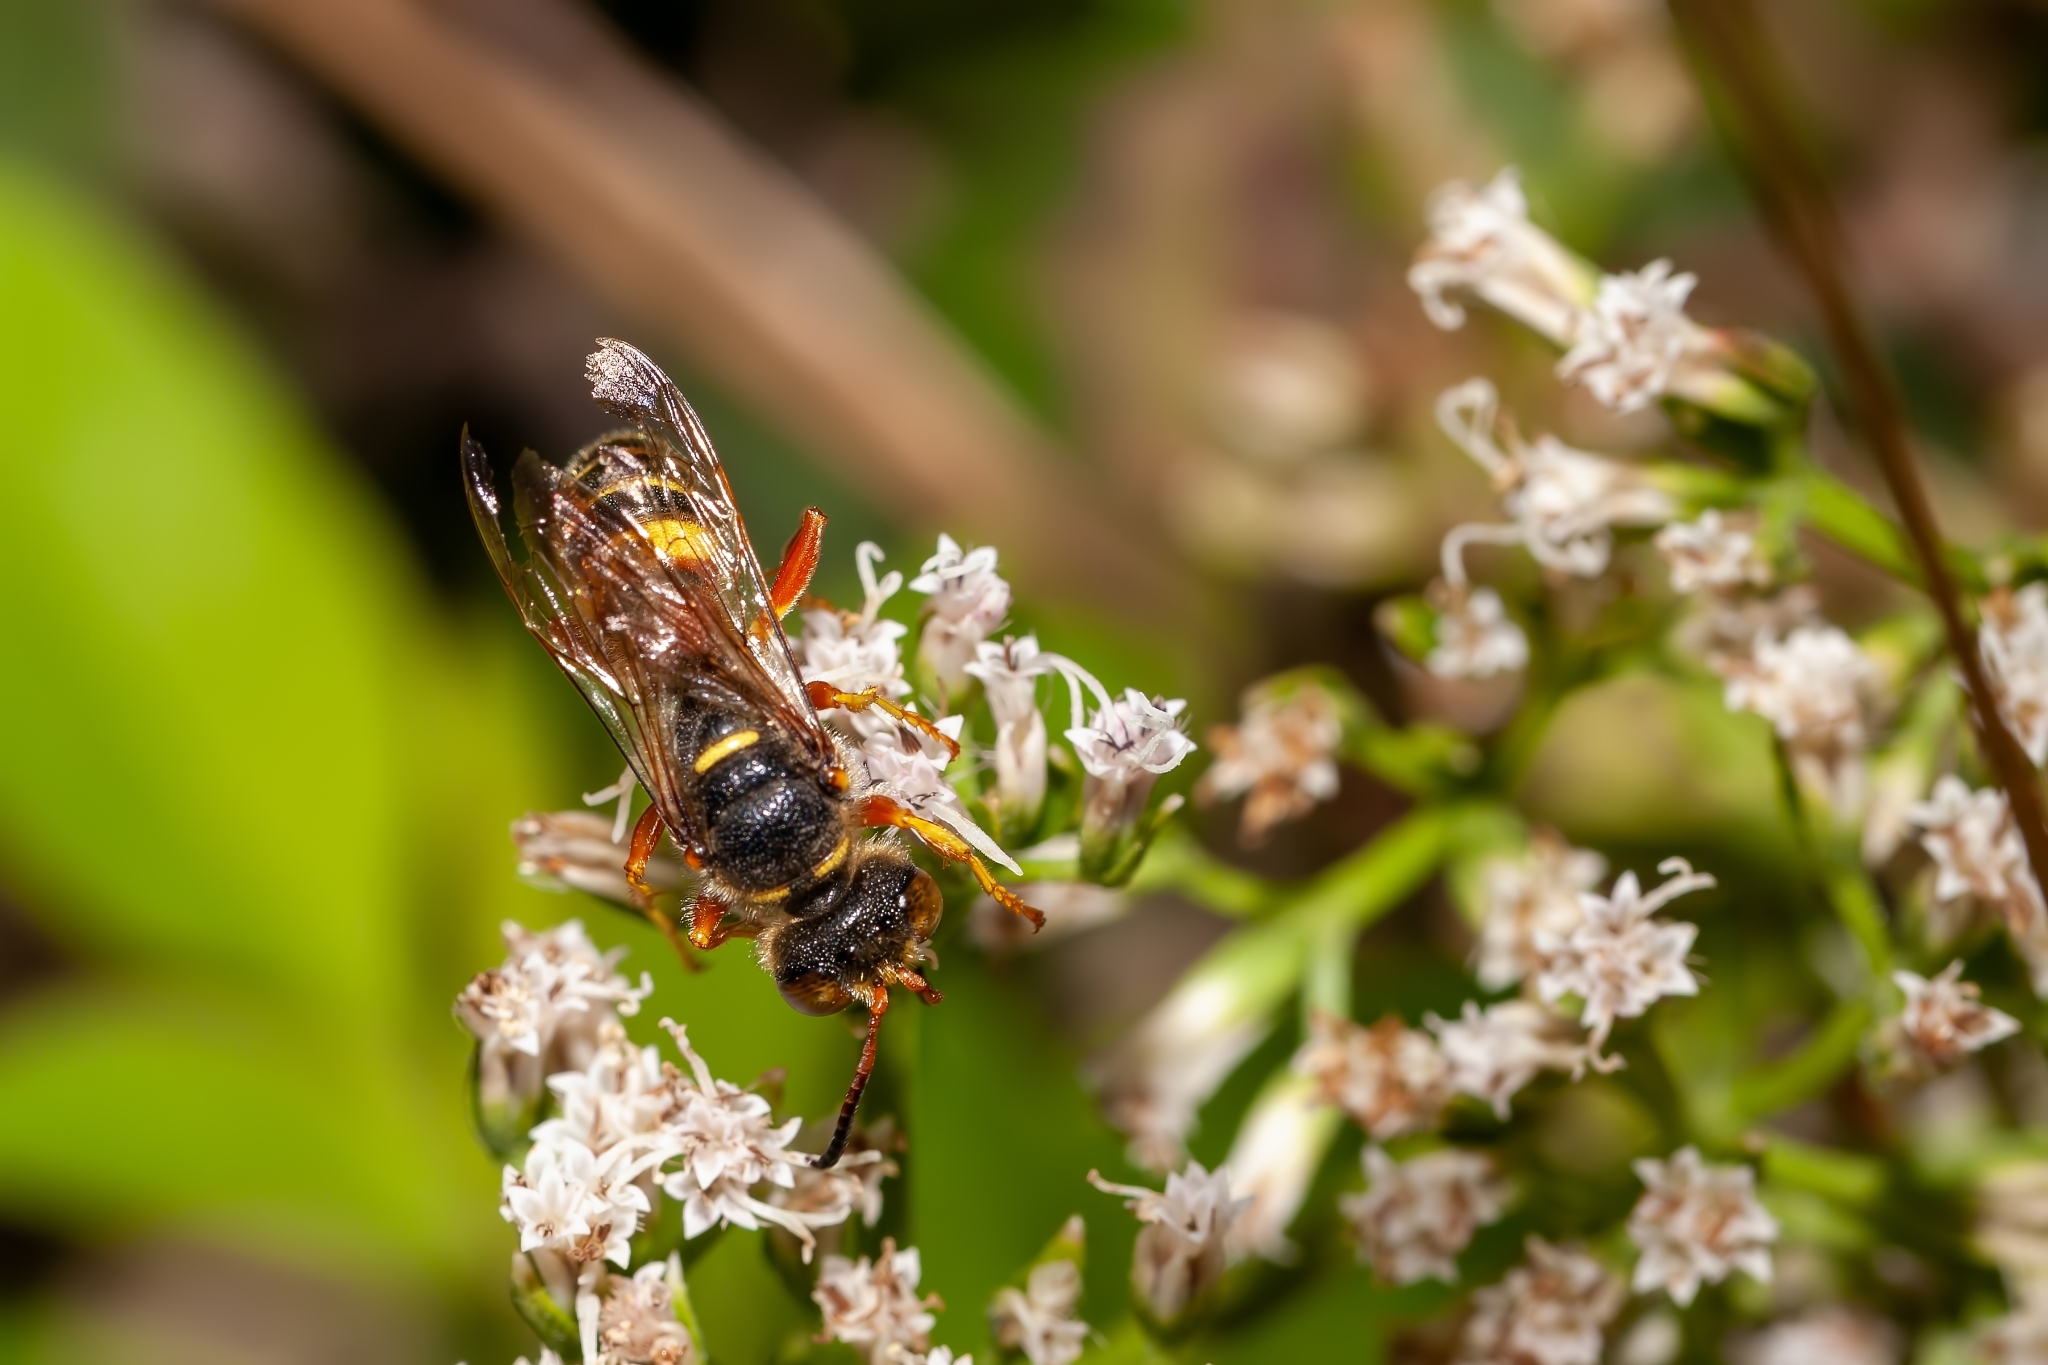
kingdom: Animalia
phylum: Arthropoda
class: Insecta
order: Hymenoptera
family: Crabronidae
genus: Cerceris
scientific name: Cerceris bicornuta
